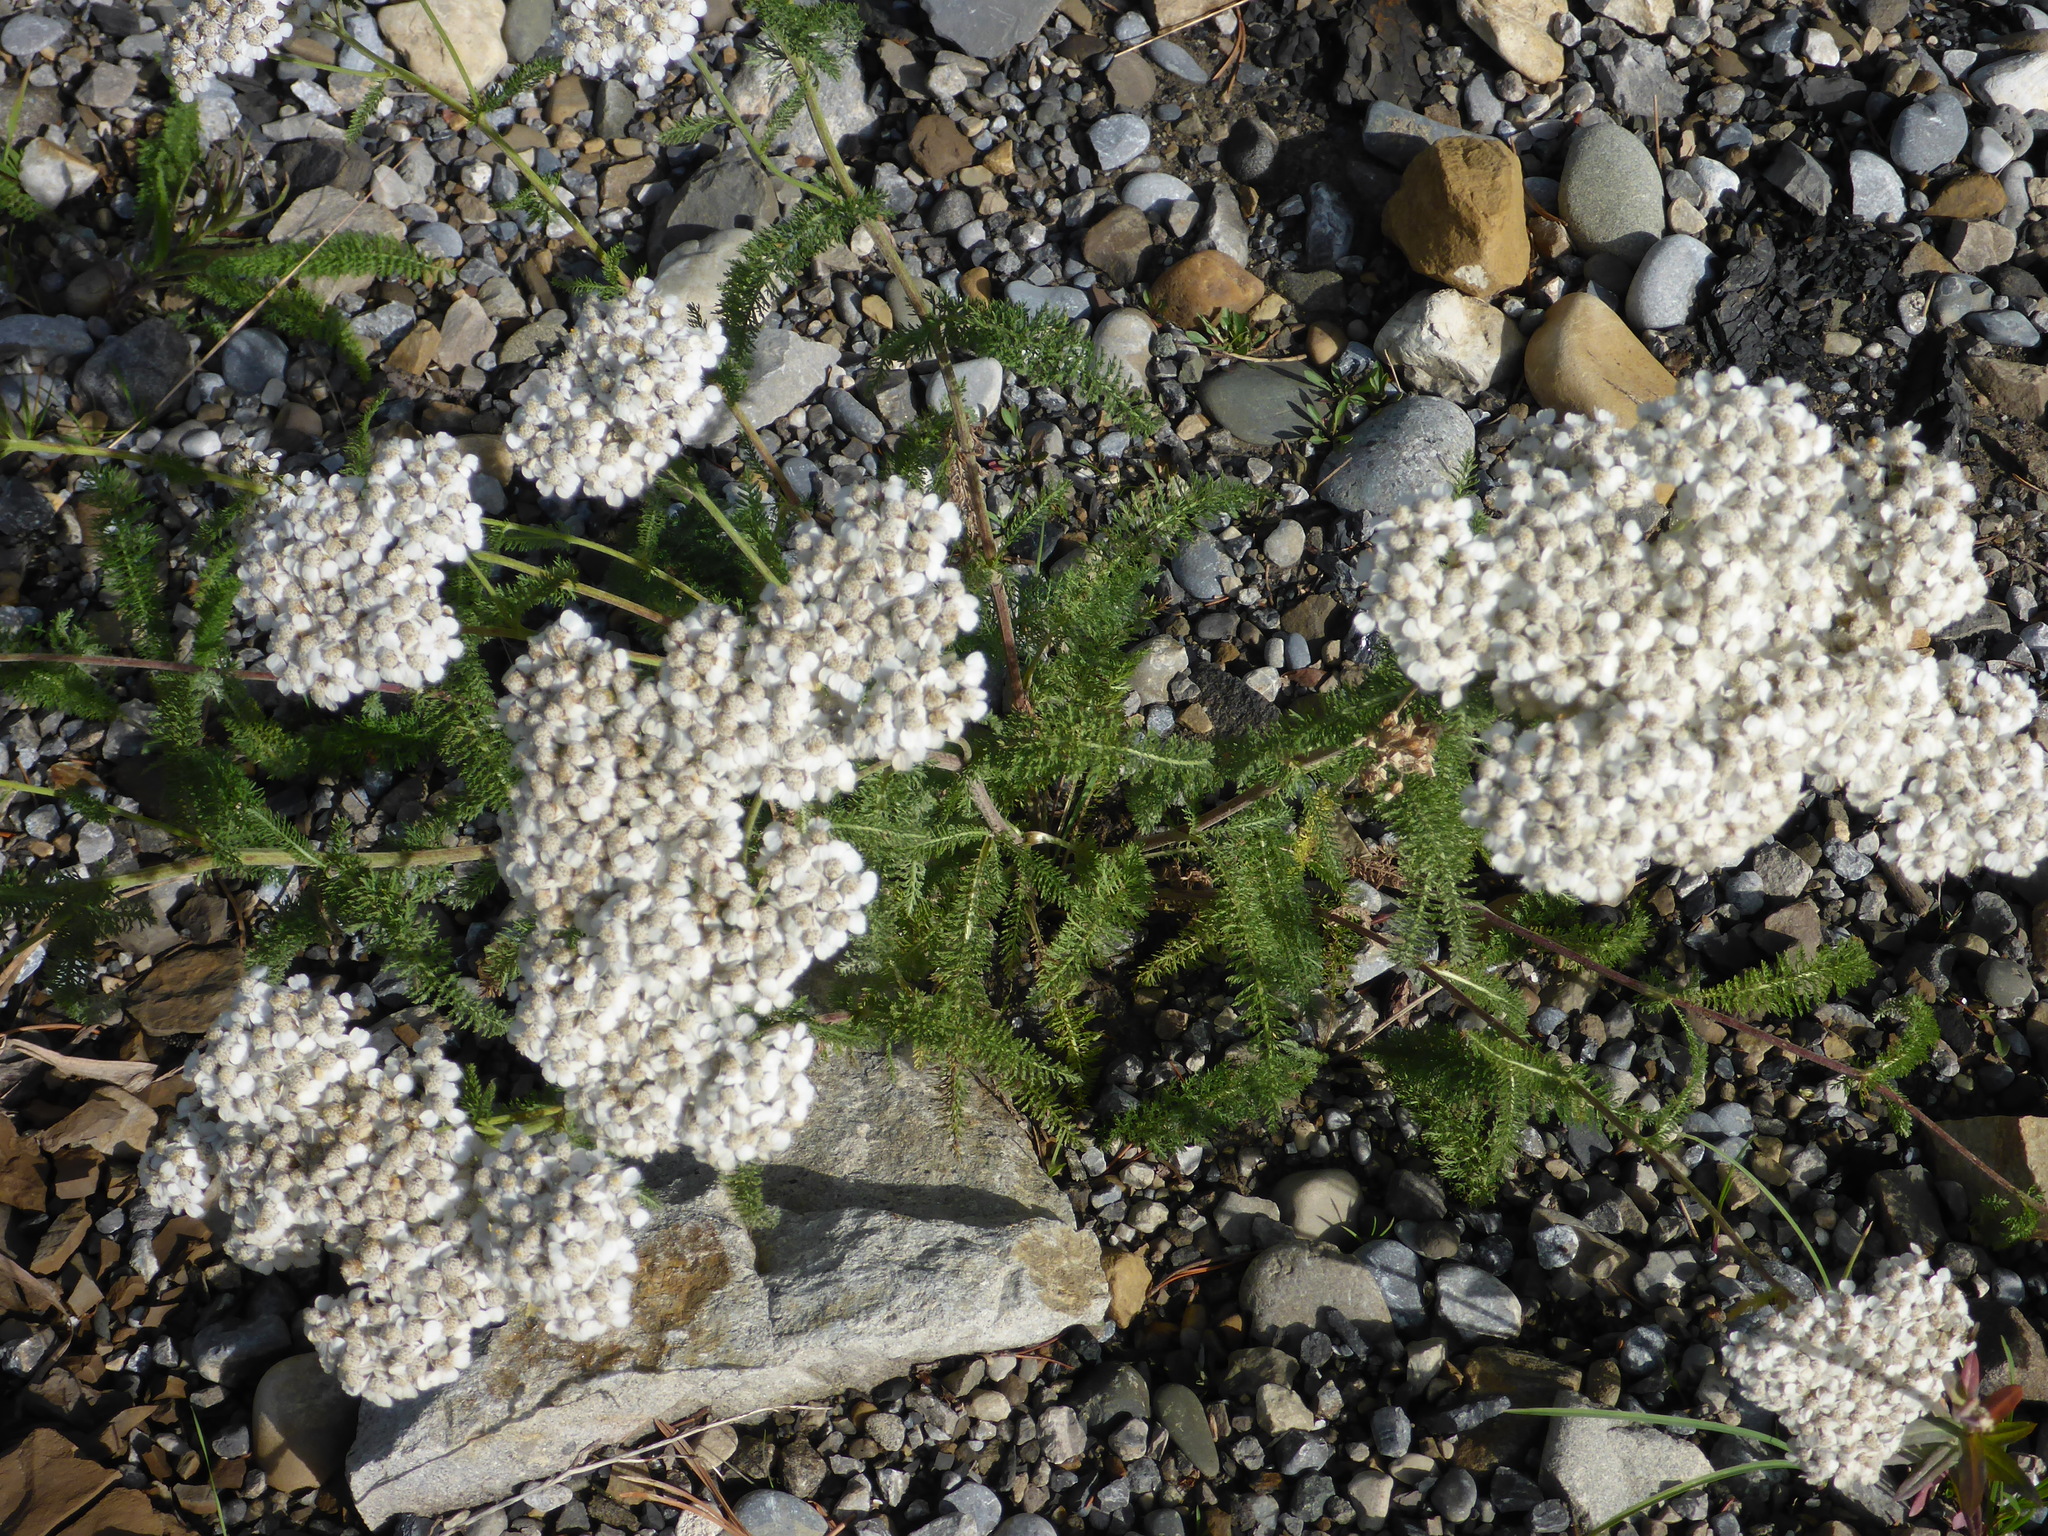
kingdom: Plantae
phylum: Tracheophyta
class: Magnoliopsida
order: Asterales
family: Asteraceae
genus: Achillea
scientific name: Achillea millefolium
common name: Yarrow
